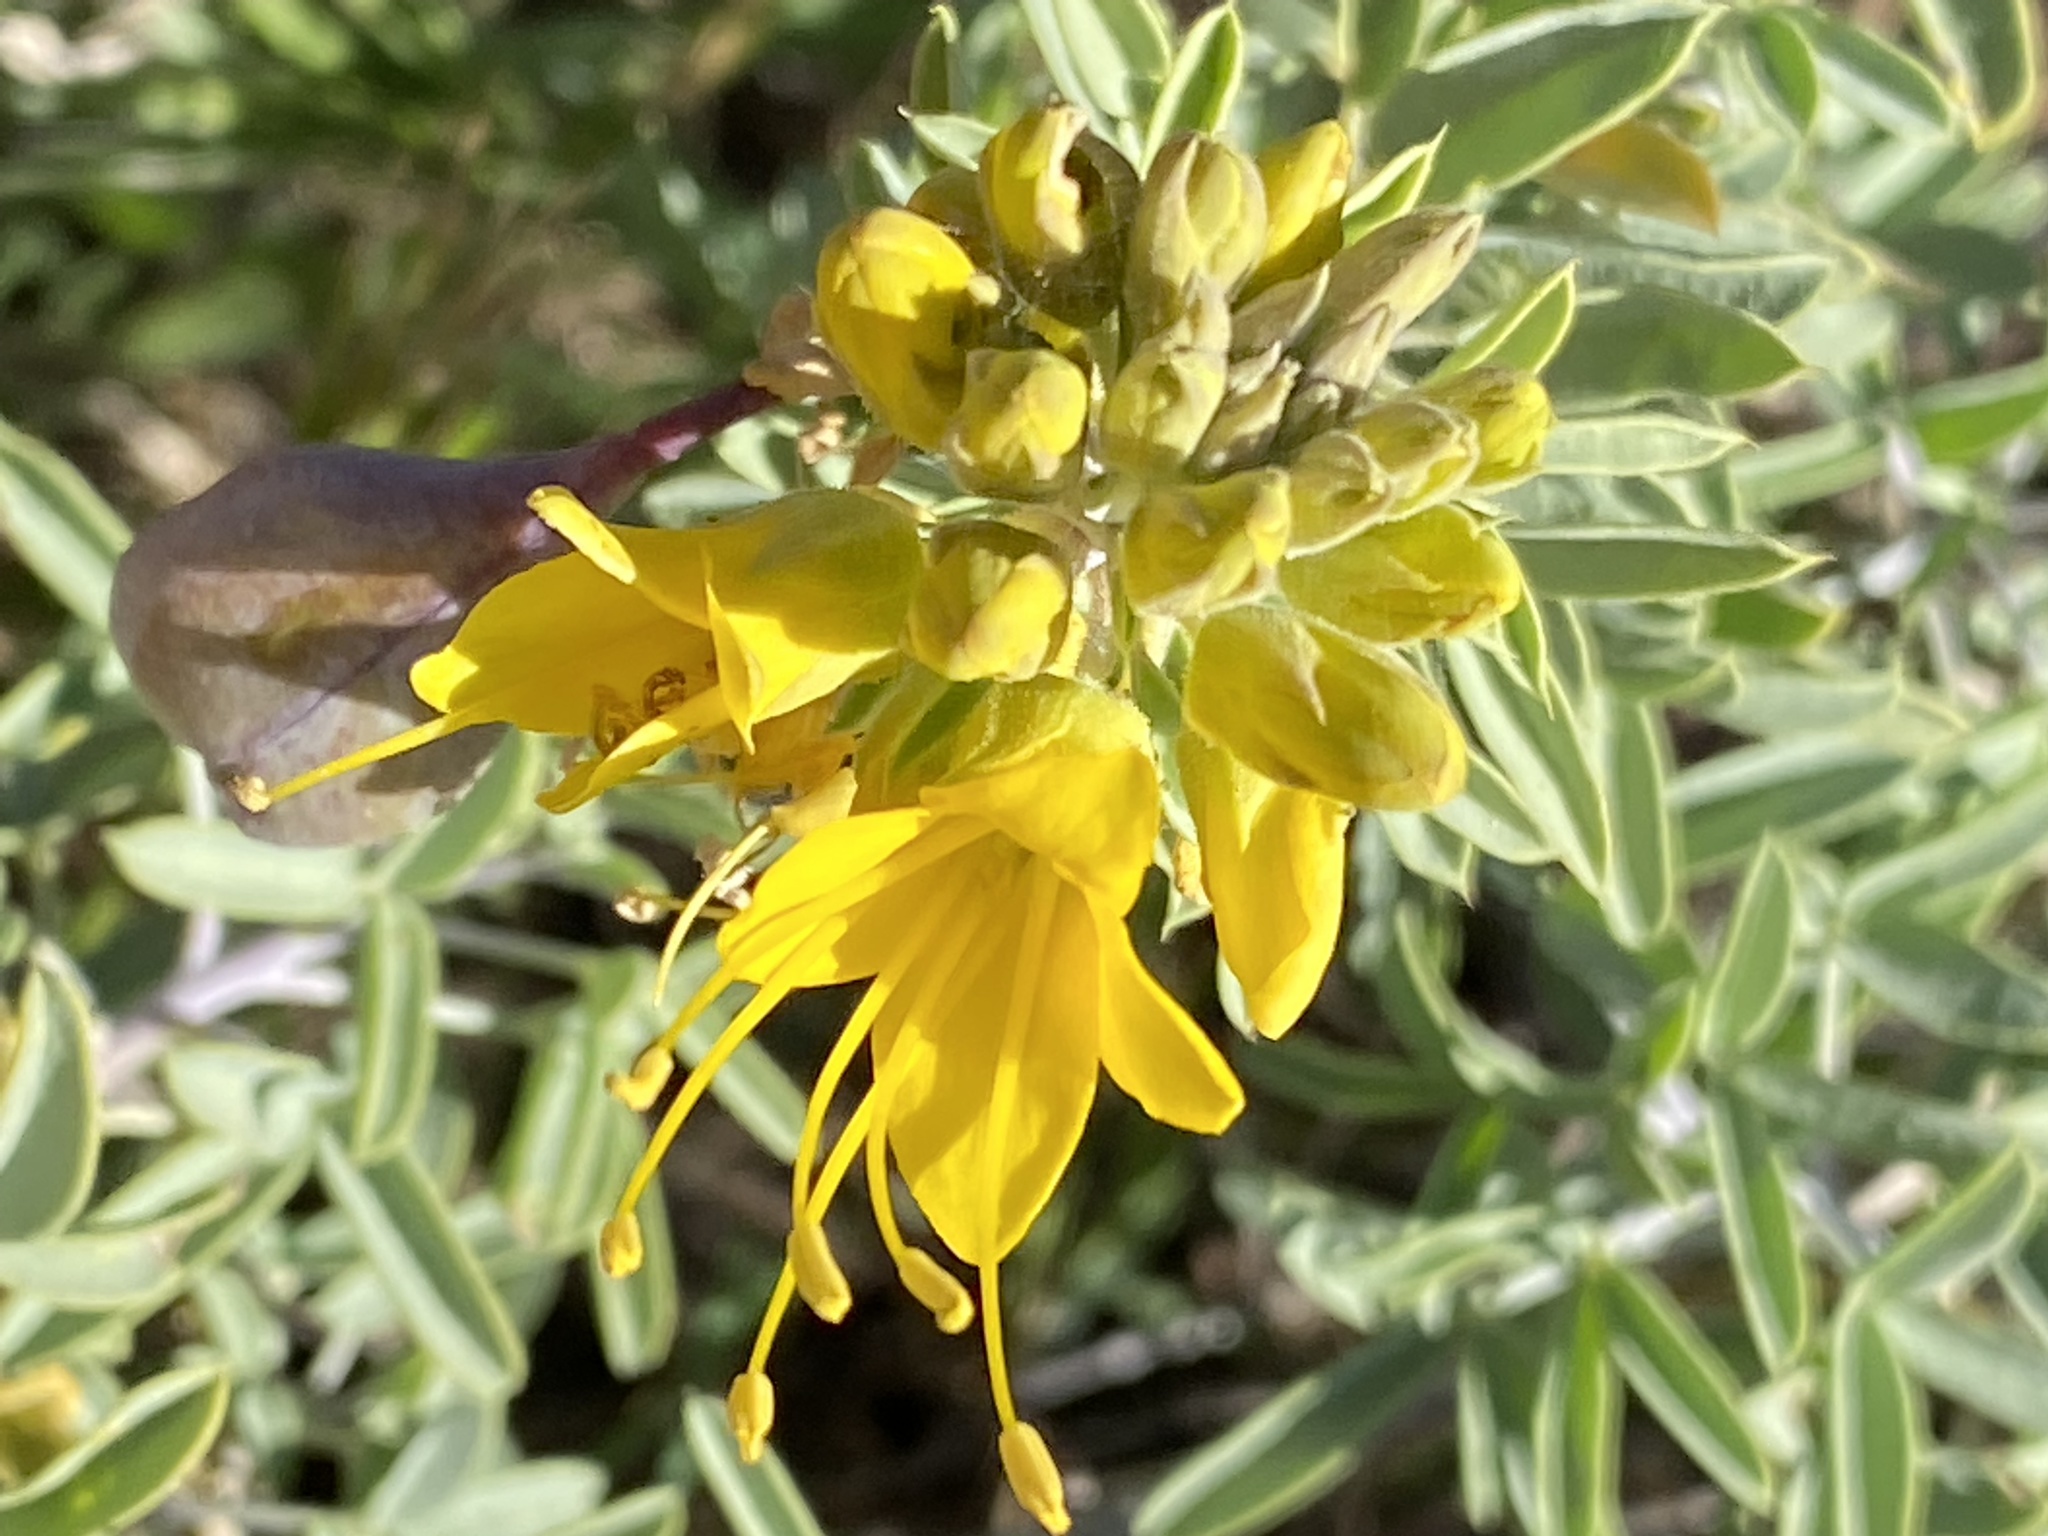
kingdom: Plantae
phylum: Tracheophyta
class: Magnoliopsida
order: Brassicales
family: Cleomaceae
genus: Cleomella
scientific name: Cleomella arborea
